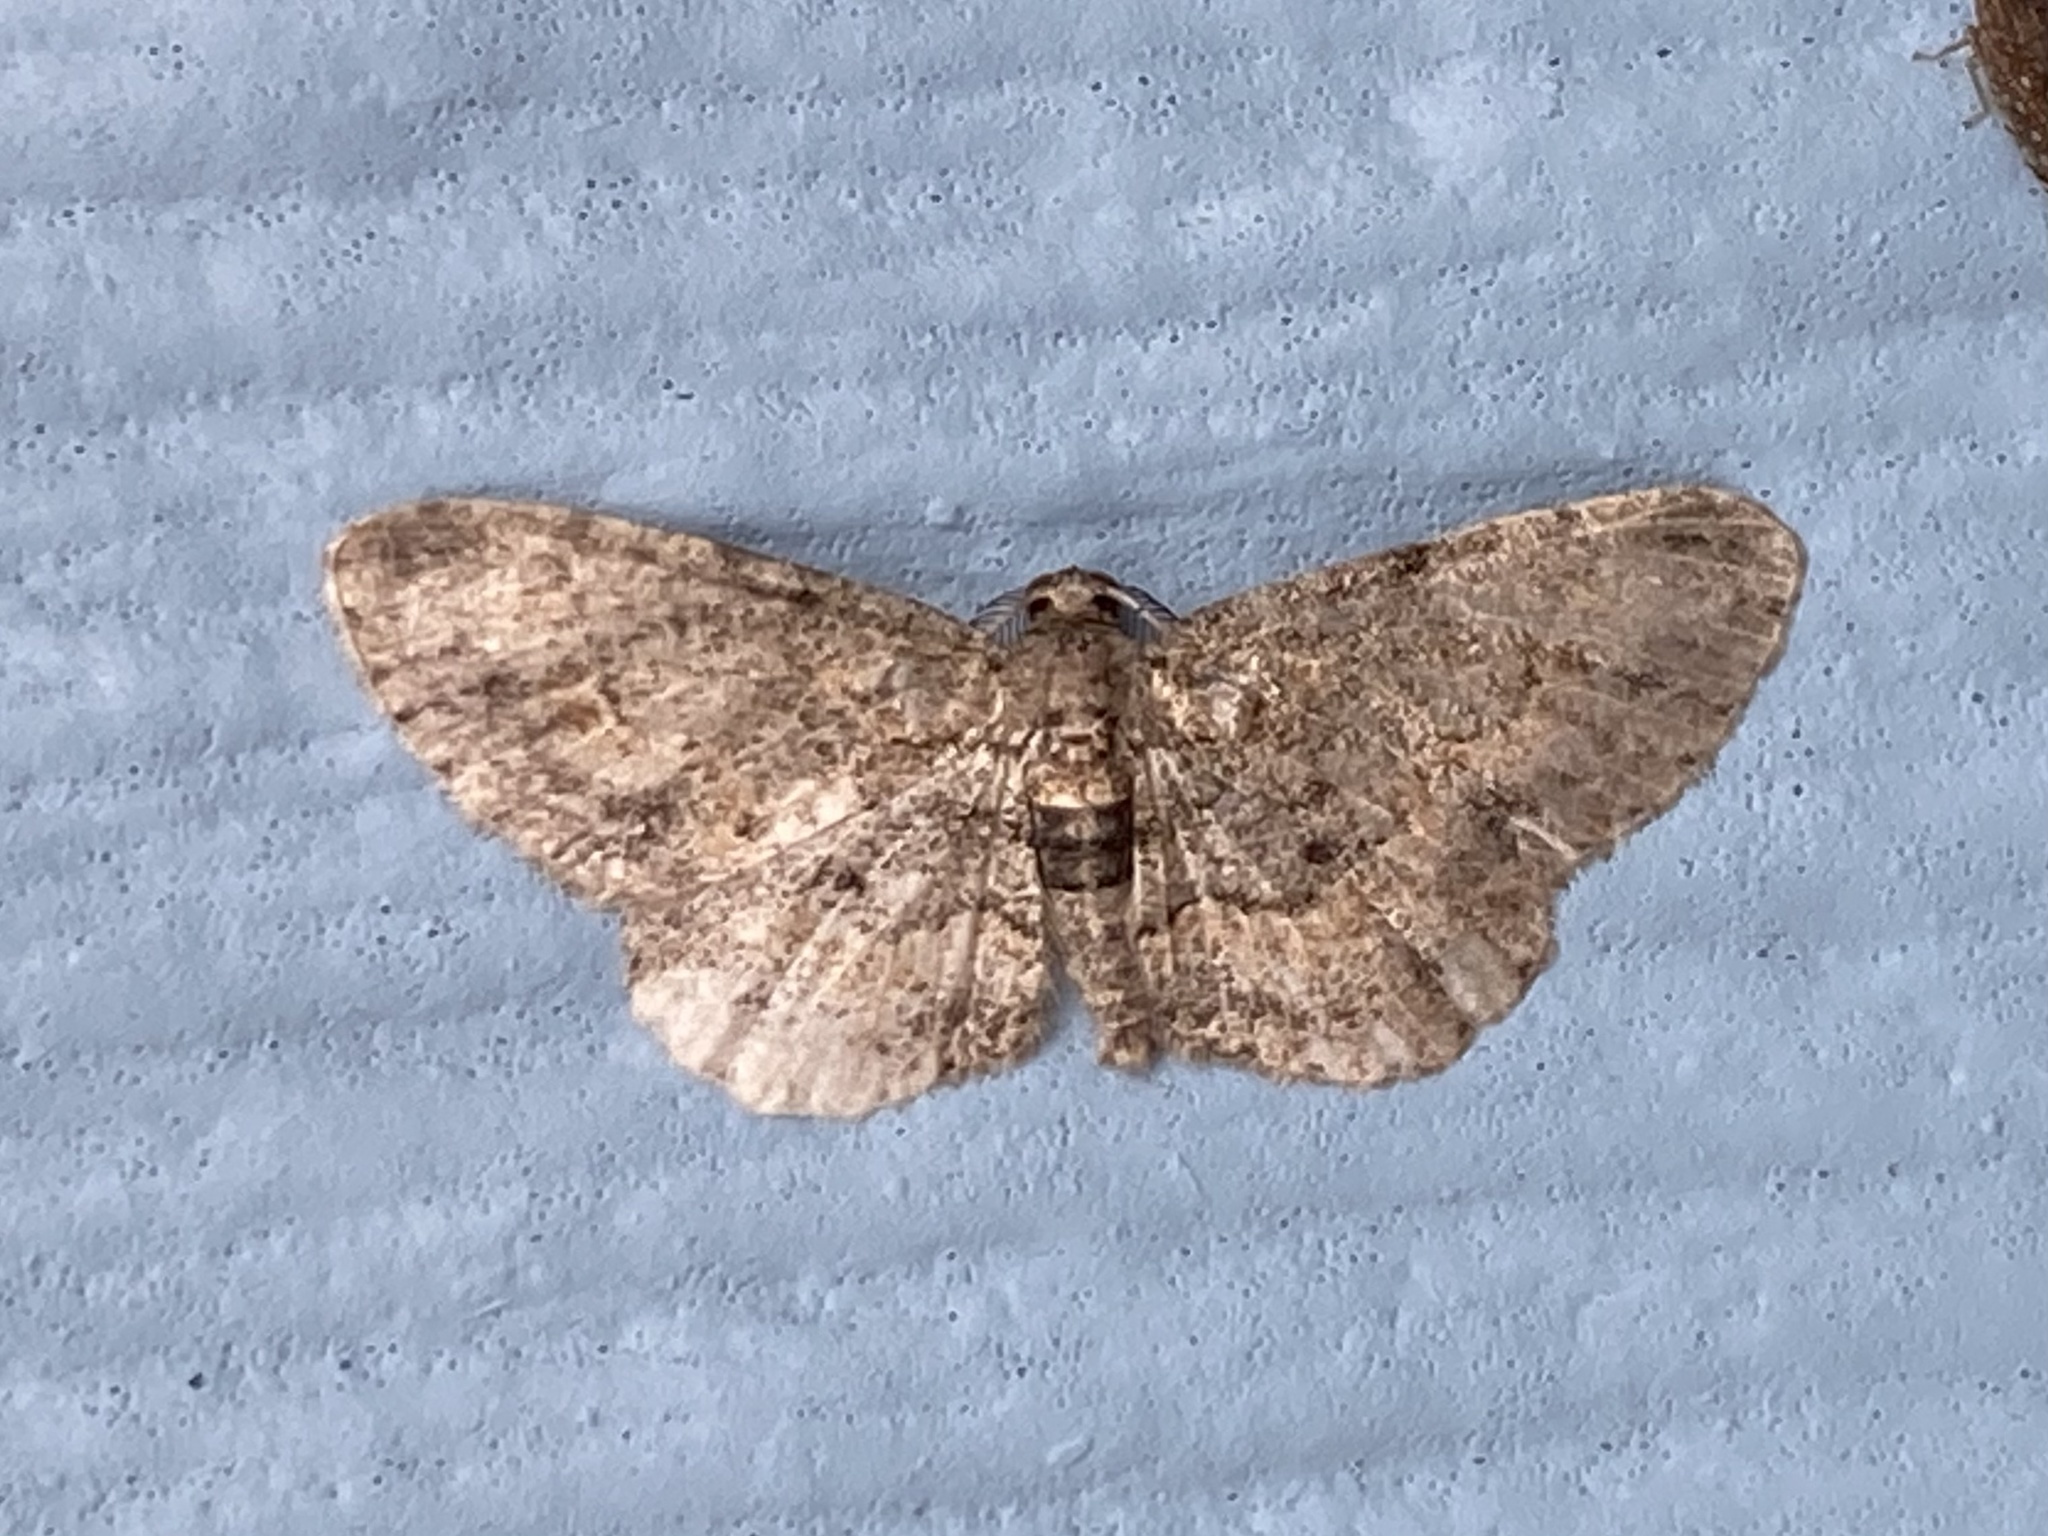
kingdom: Animalia
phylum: Arthropoda
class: Insecta
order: Lepidoptera
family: Geometridae
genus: Glenoides
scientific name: Glenoides texanaria
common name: Texas gray
